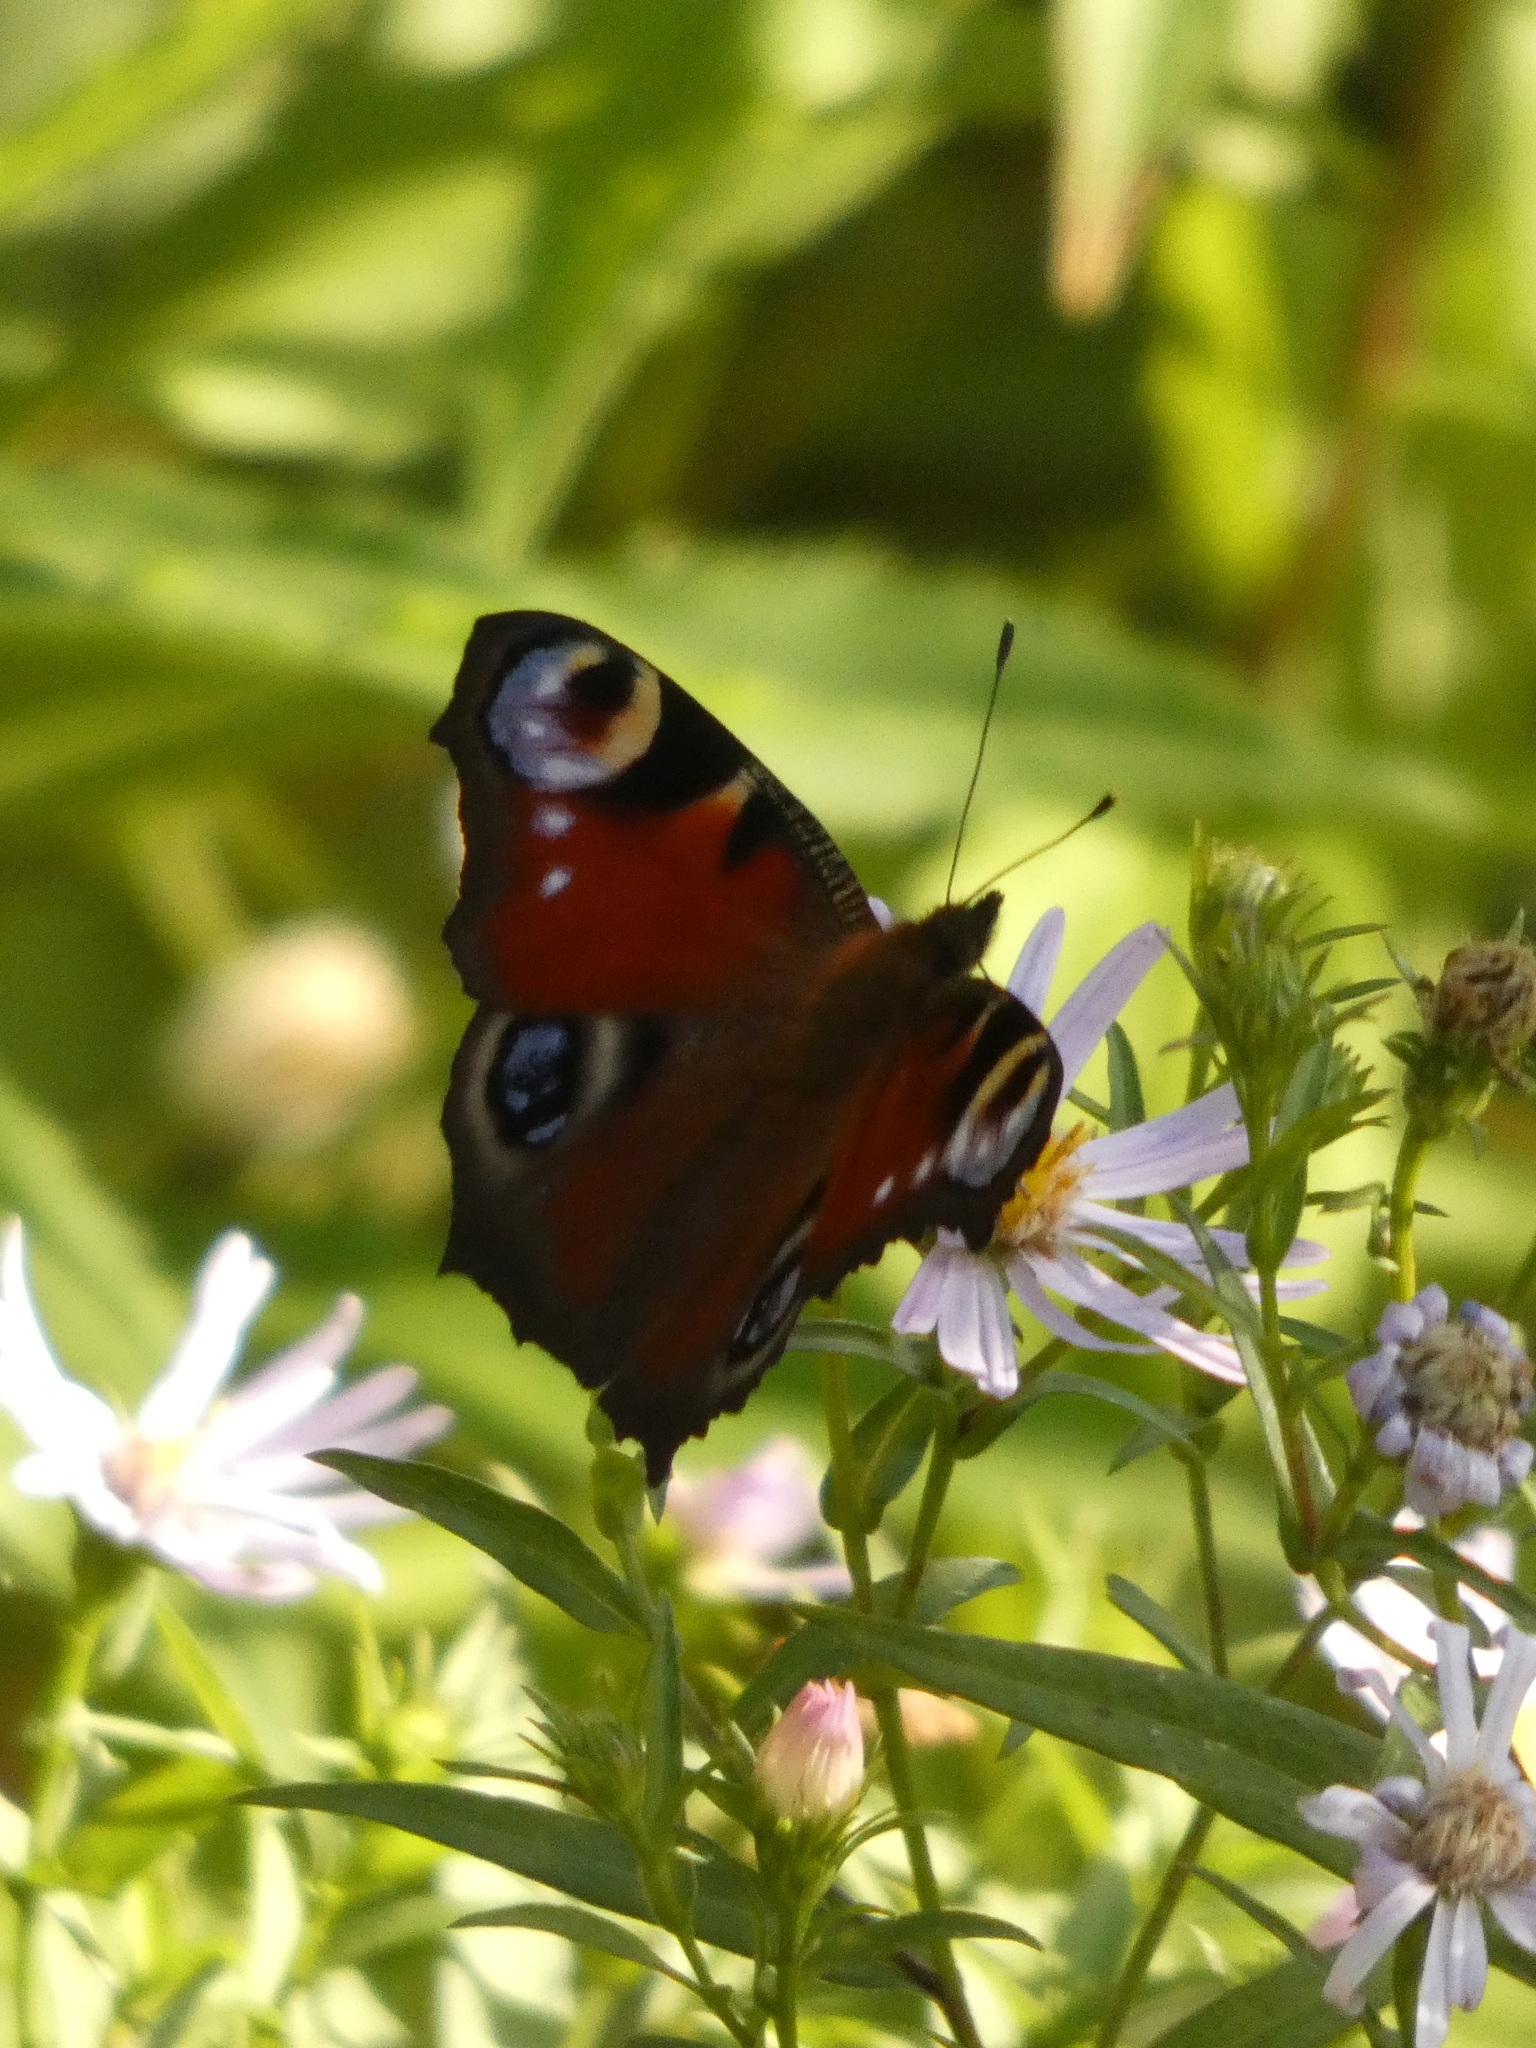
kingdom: Animalia
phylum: Arthropoda
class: Insecta
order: Lepidoptera
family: Nymphalidae
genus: Aglais
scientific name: Aglais io
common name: Peacock
